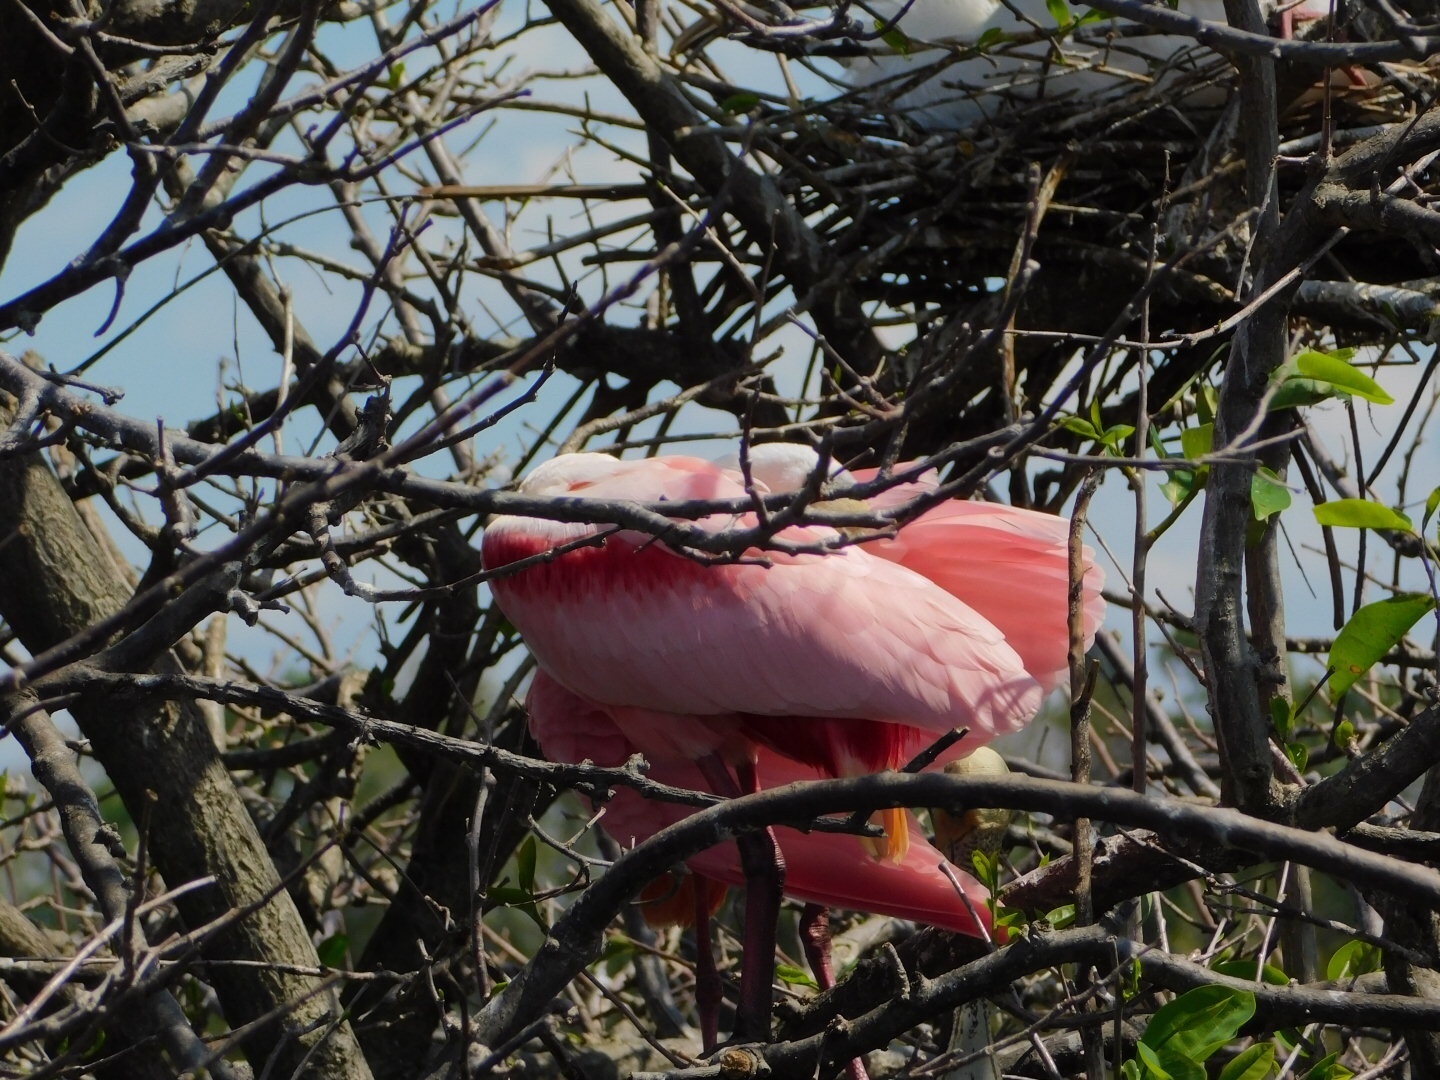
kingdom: Animalia
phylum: Chordata
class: Aves
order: Pelecaniformes
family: Threskiornithidae
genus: Platalea
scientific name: Platalea ajaja
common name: Roseate spoonbill
